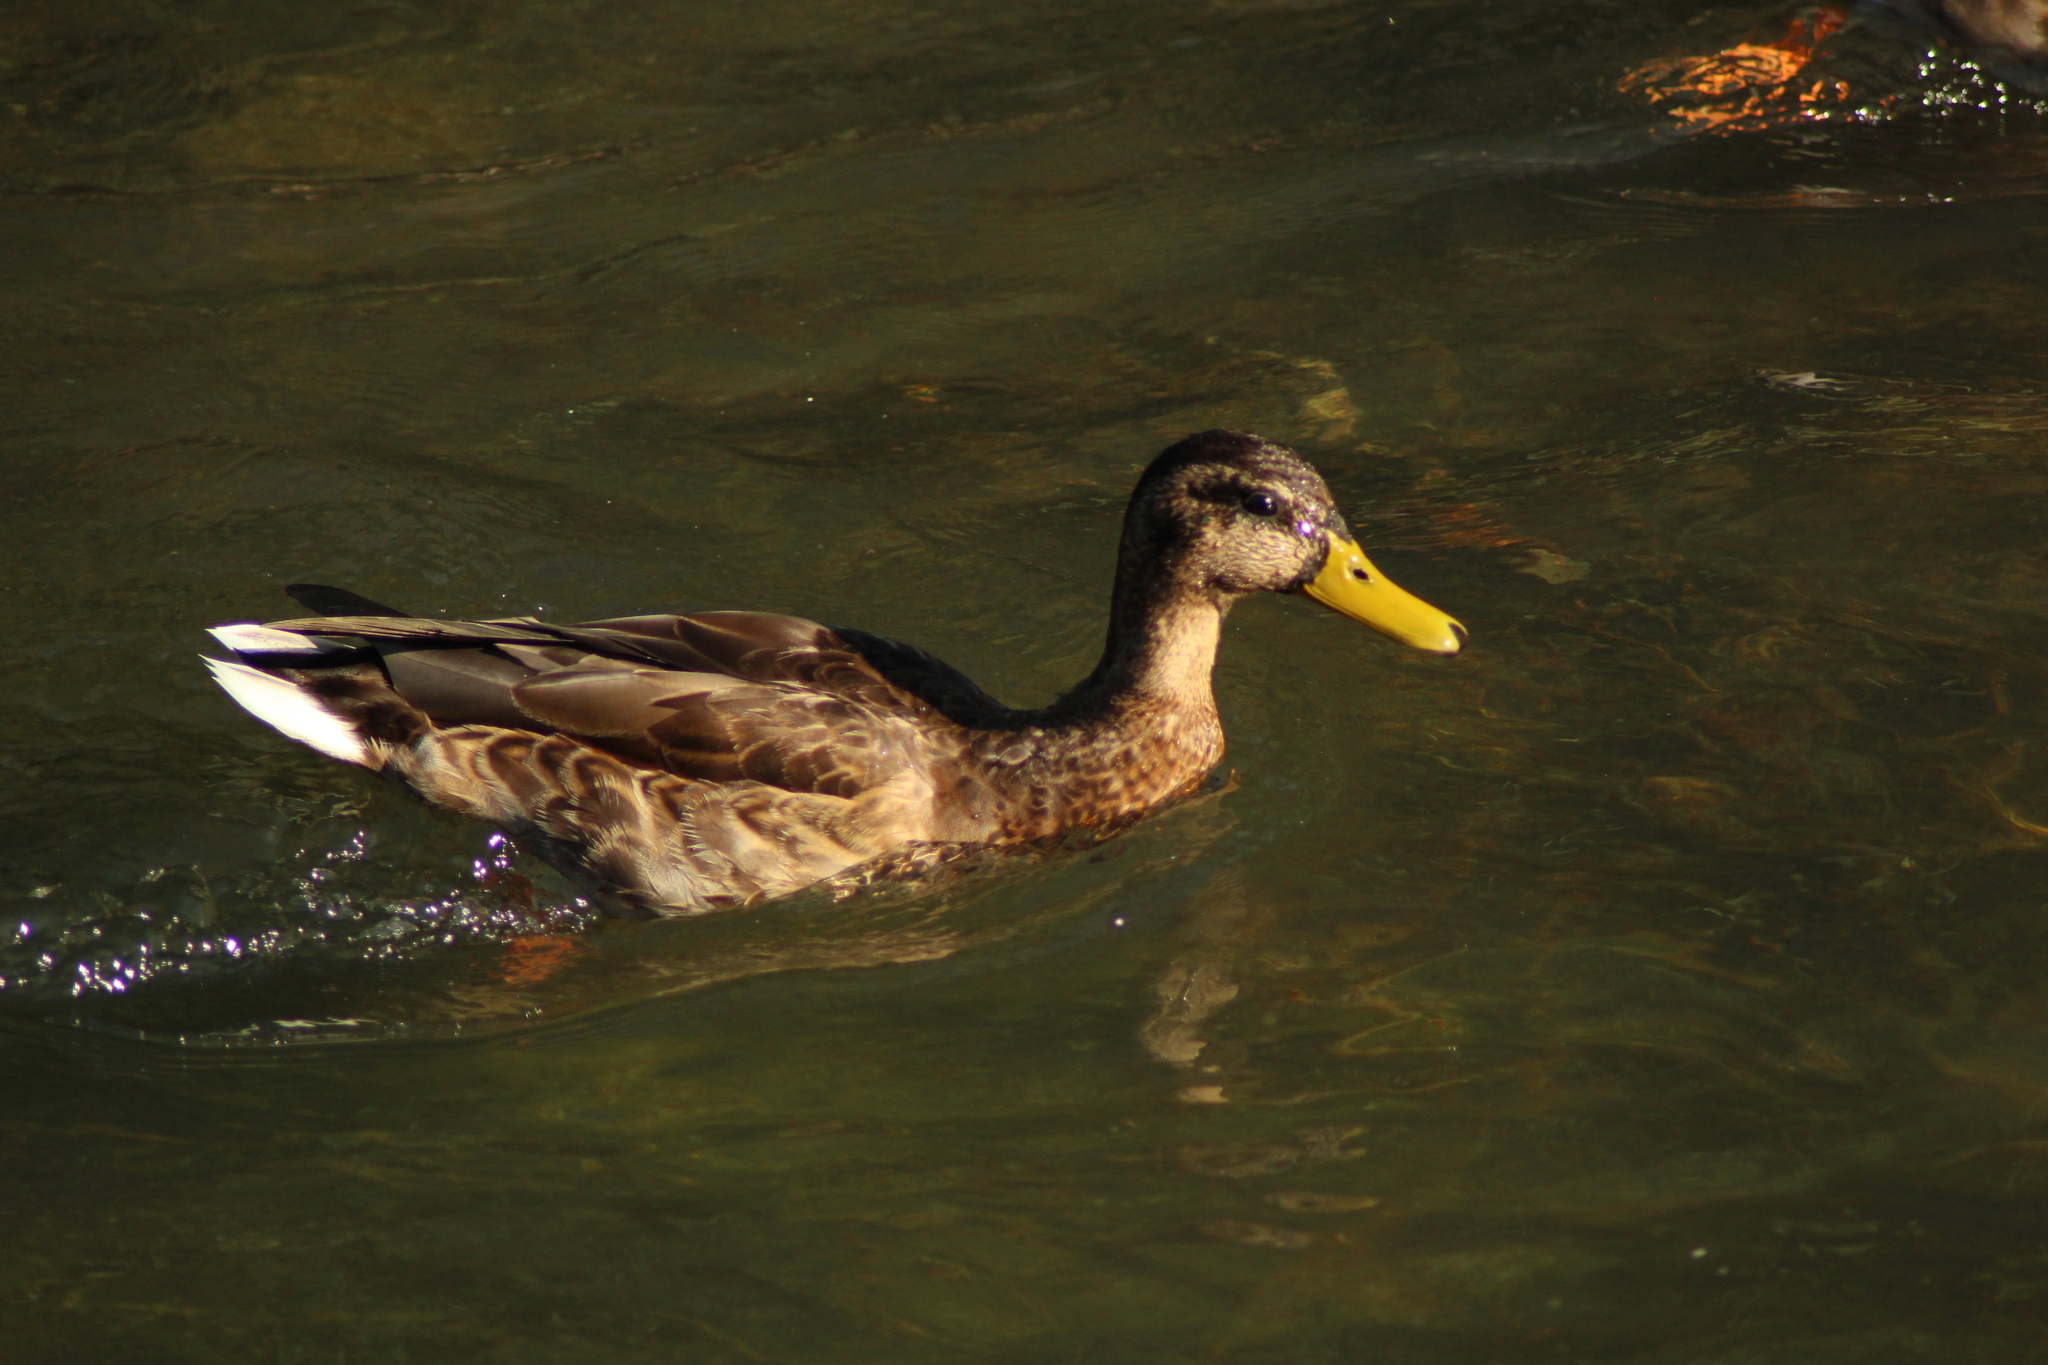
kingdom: Animalia
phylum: Chordata
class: Aves
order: Anseriformes
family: Anatidae
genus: Anas
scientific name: Anas platyrhynchos
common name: Mallard
